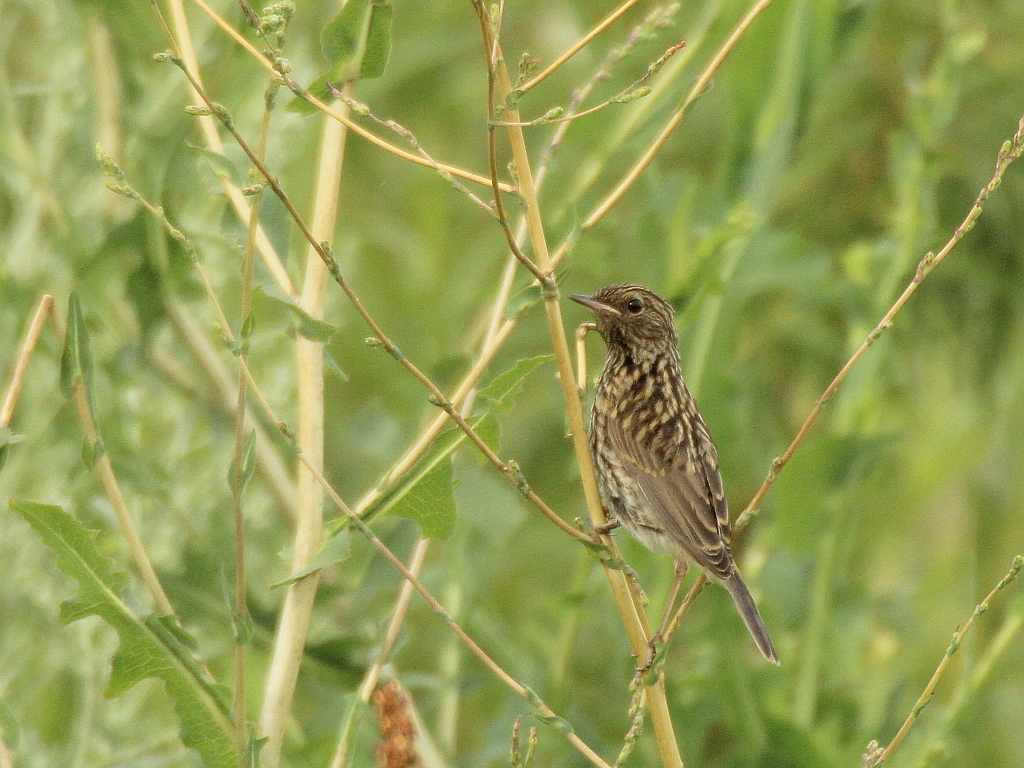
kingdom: Animalia
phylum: Chordata
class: Aves
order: Passeriformes
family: Muscicapidae
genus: Luscinia
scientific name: Luscinia svecica
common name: Bluethroat
